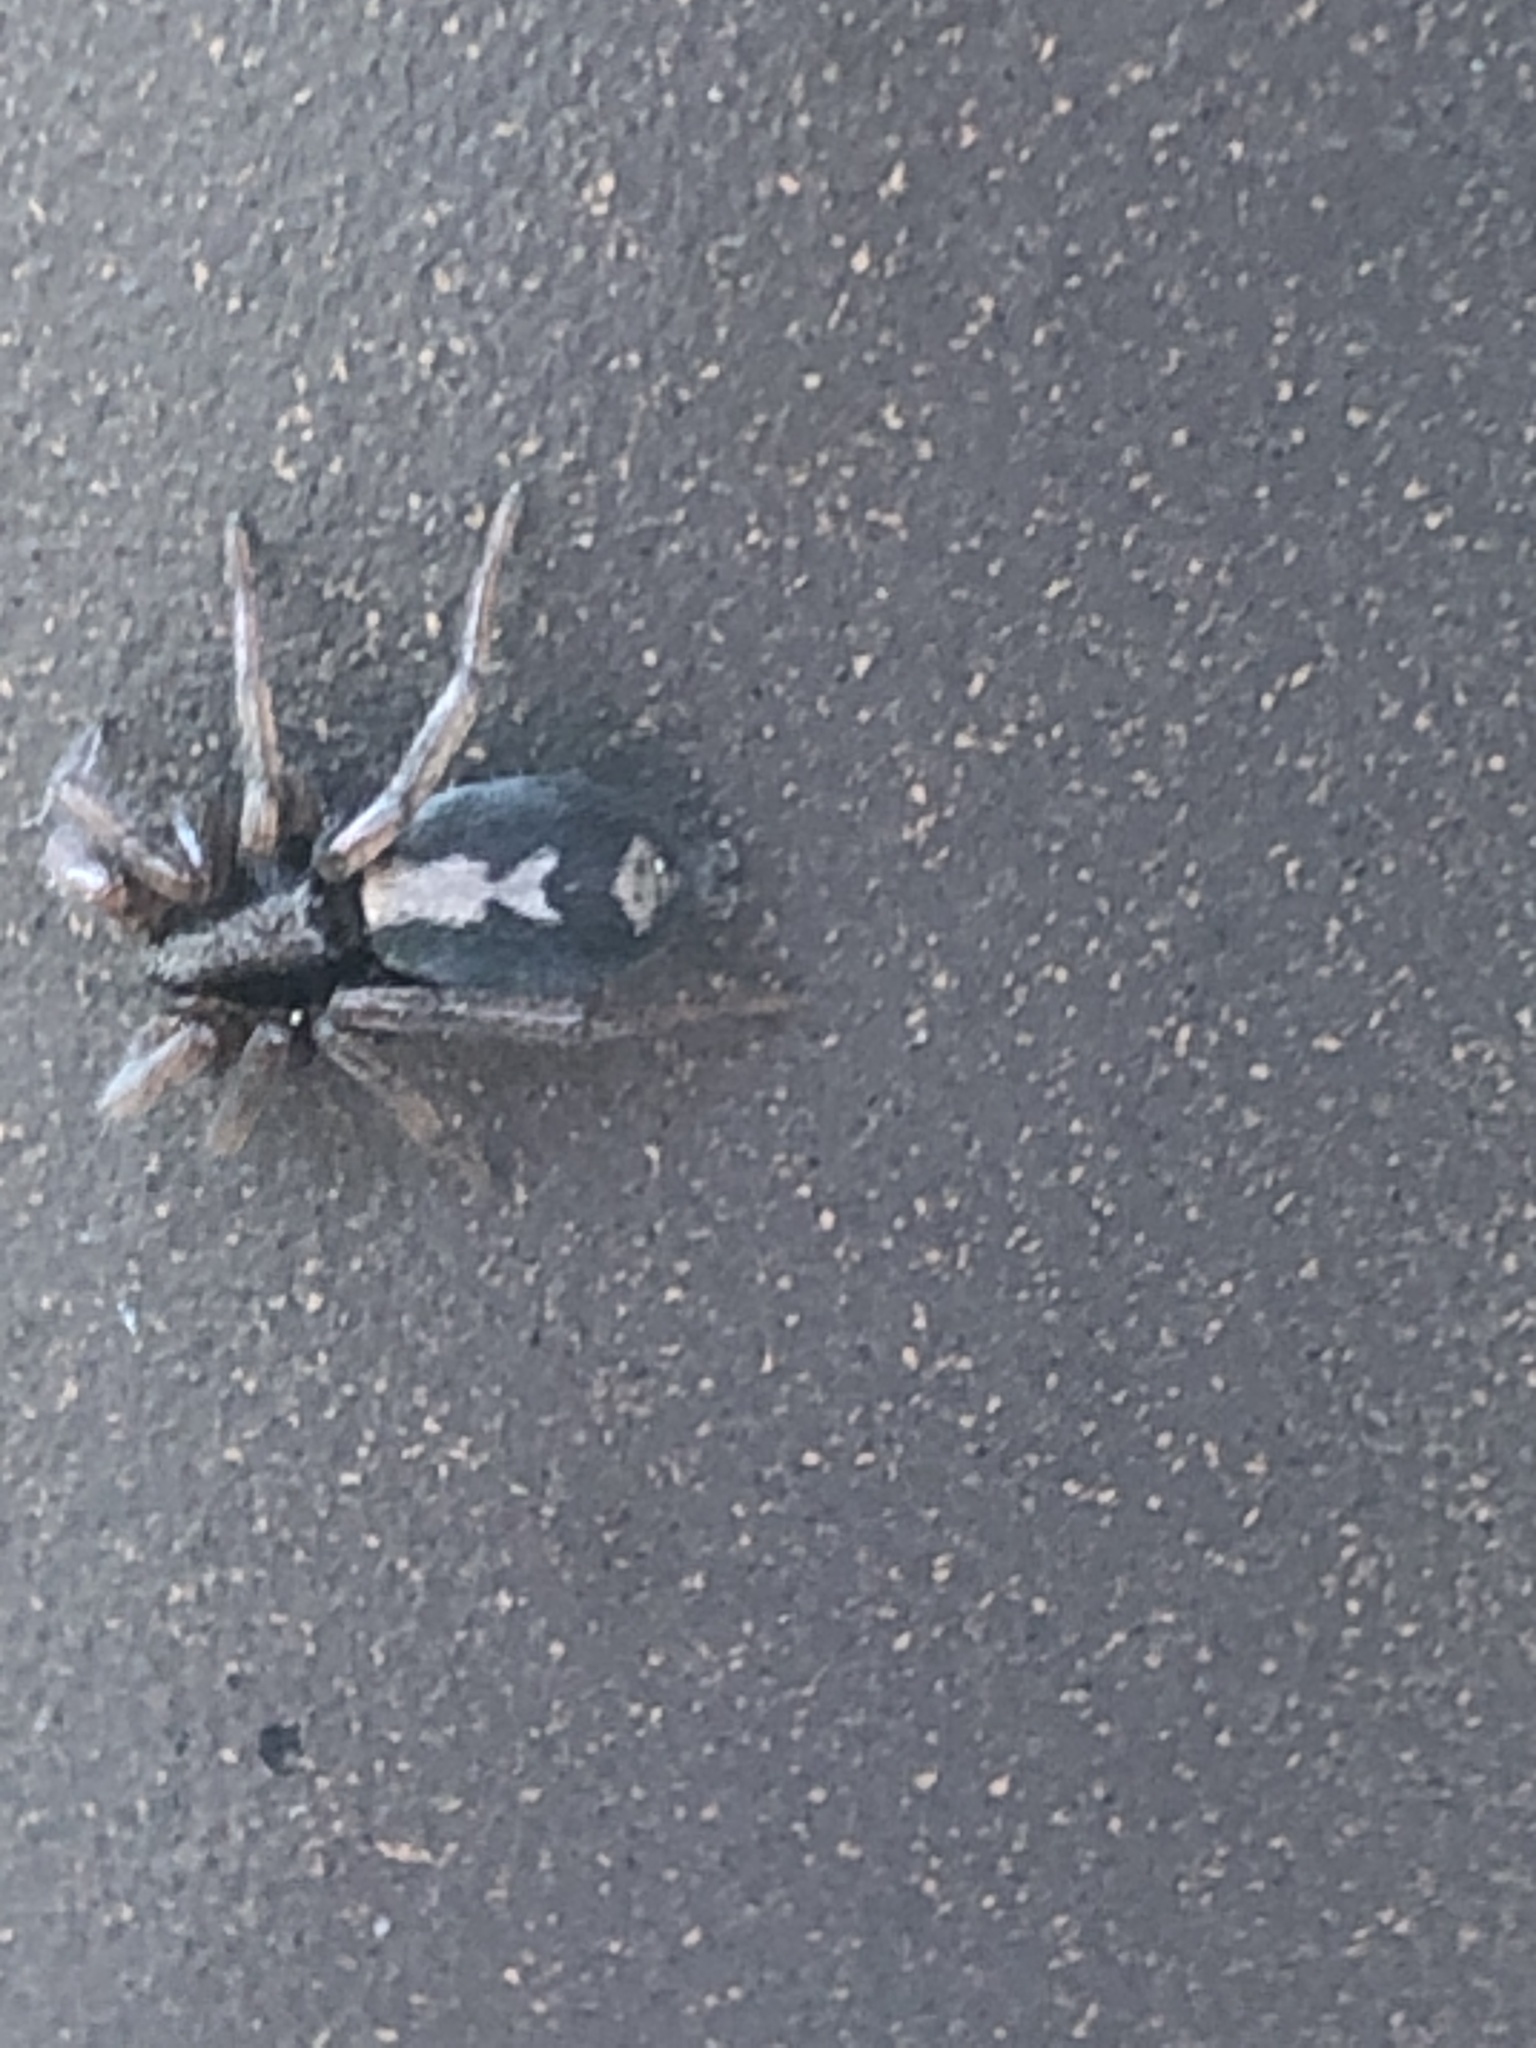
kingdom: Animalia
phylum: Arthropoda
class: Arachnida
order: Araneae
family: Gnaphosidae
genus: Herpyllus
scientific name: Herpyllus ecclesiasticus
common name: Eastern parson spider
